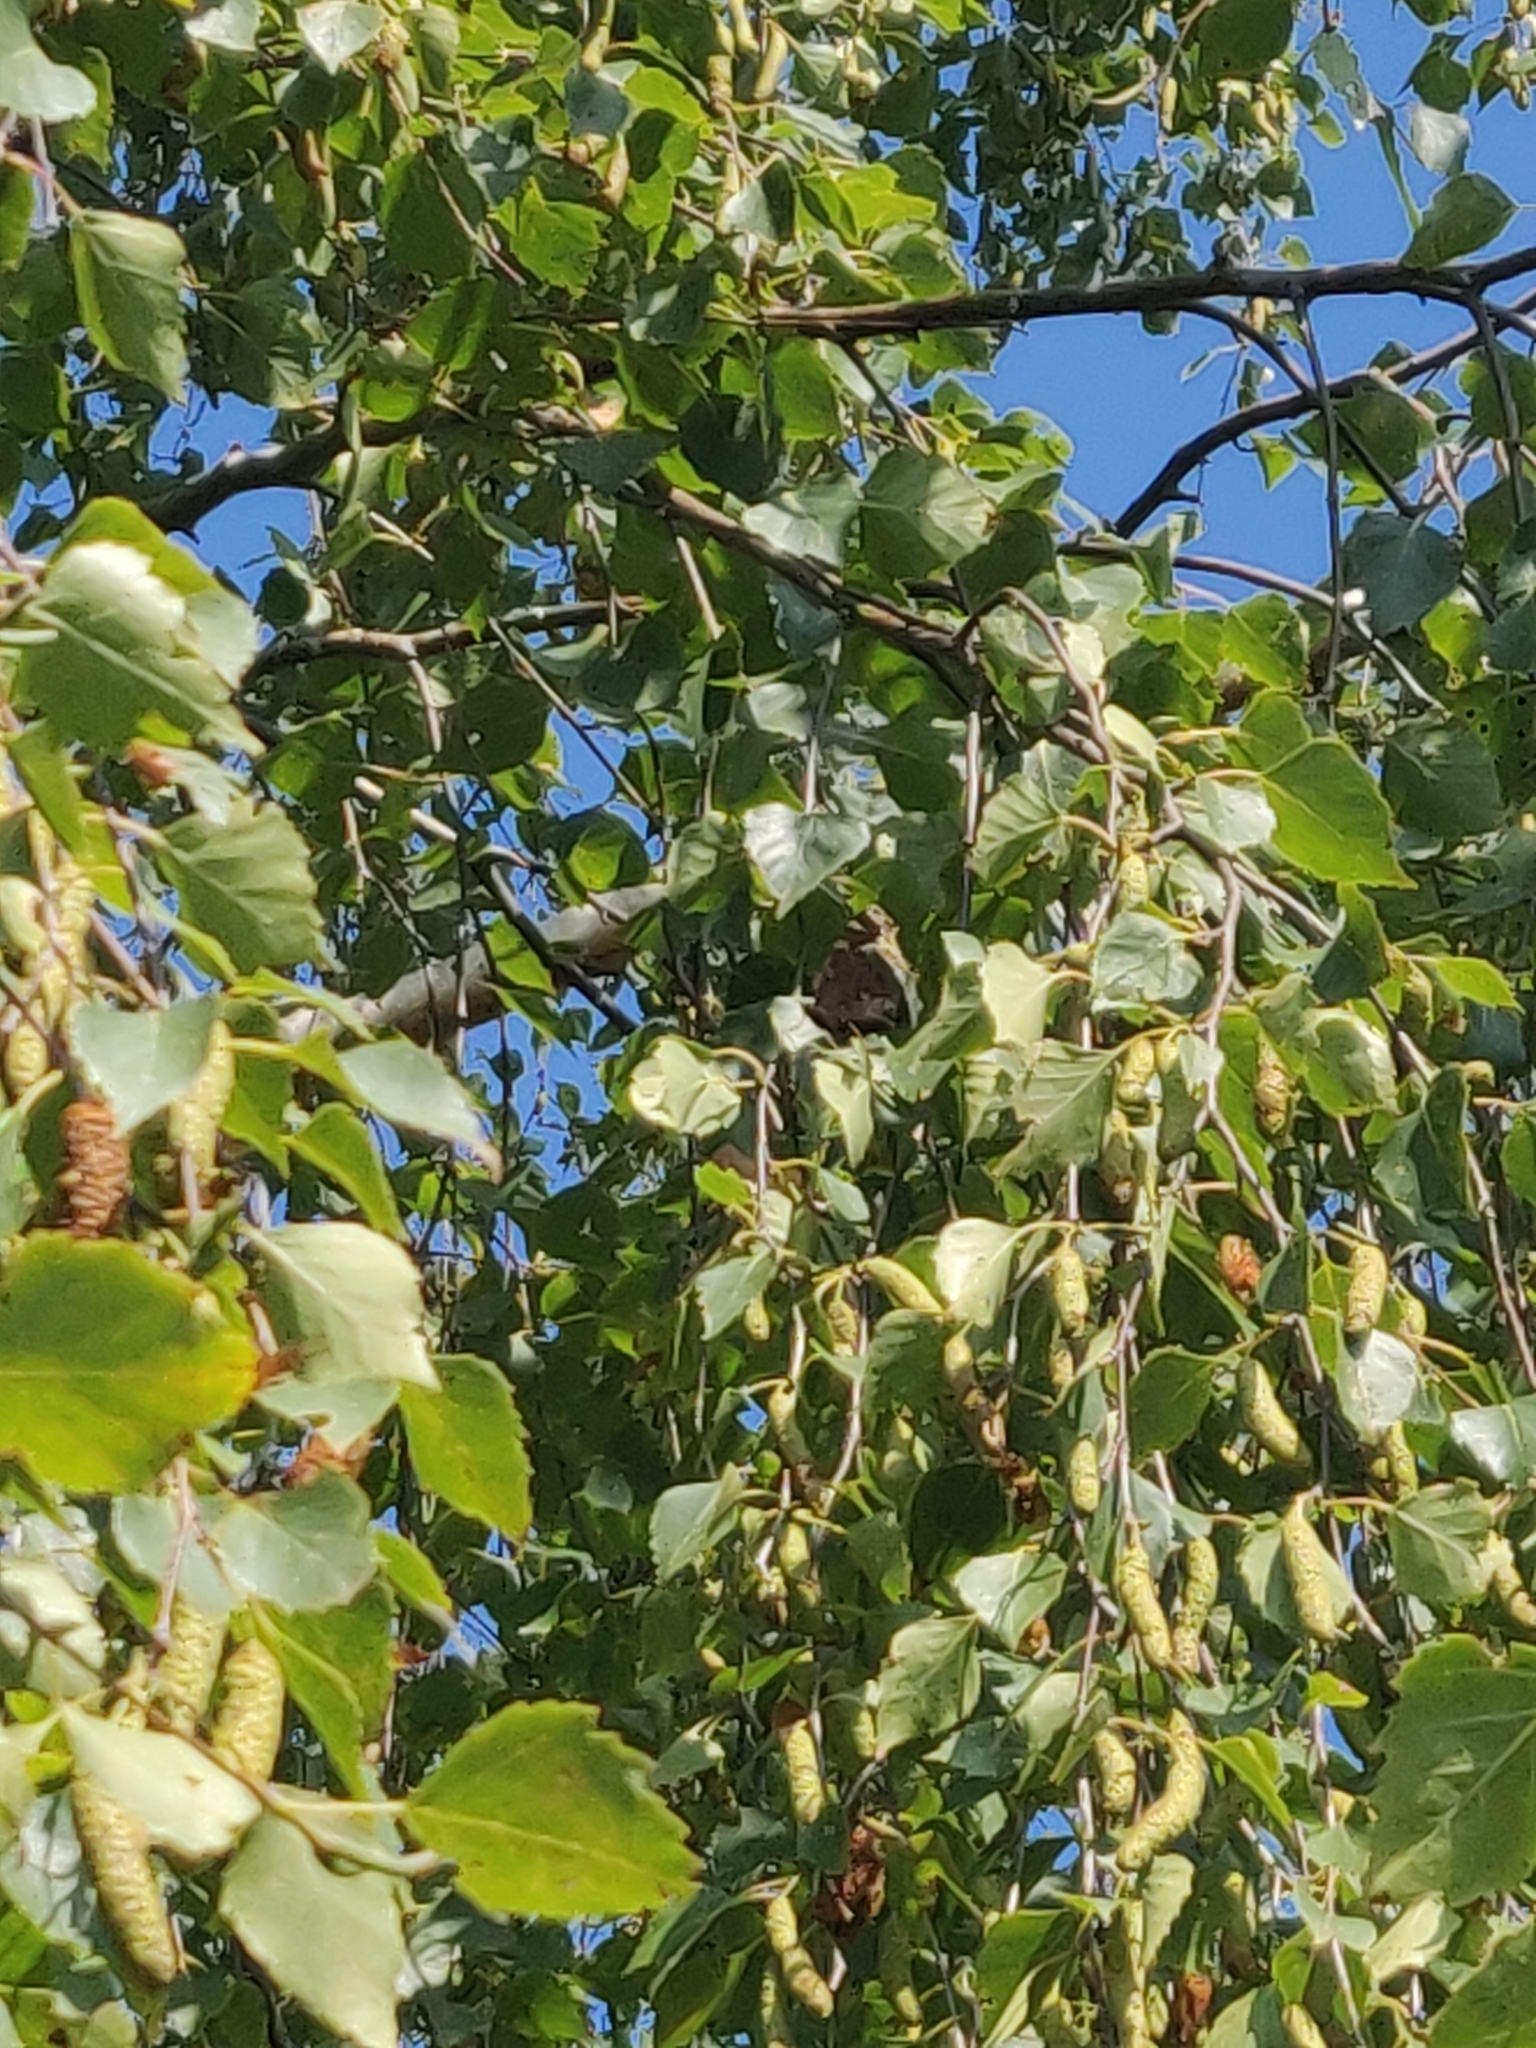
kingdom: Animalia
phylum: Arthropoda
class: Insecta
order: Lepidoptera
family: Nymphalidae
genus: Nymphalis
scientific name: Nymphalis antiopa
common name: Camberwell beauty
